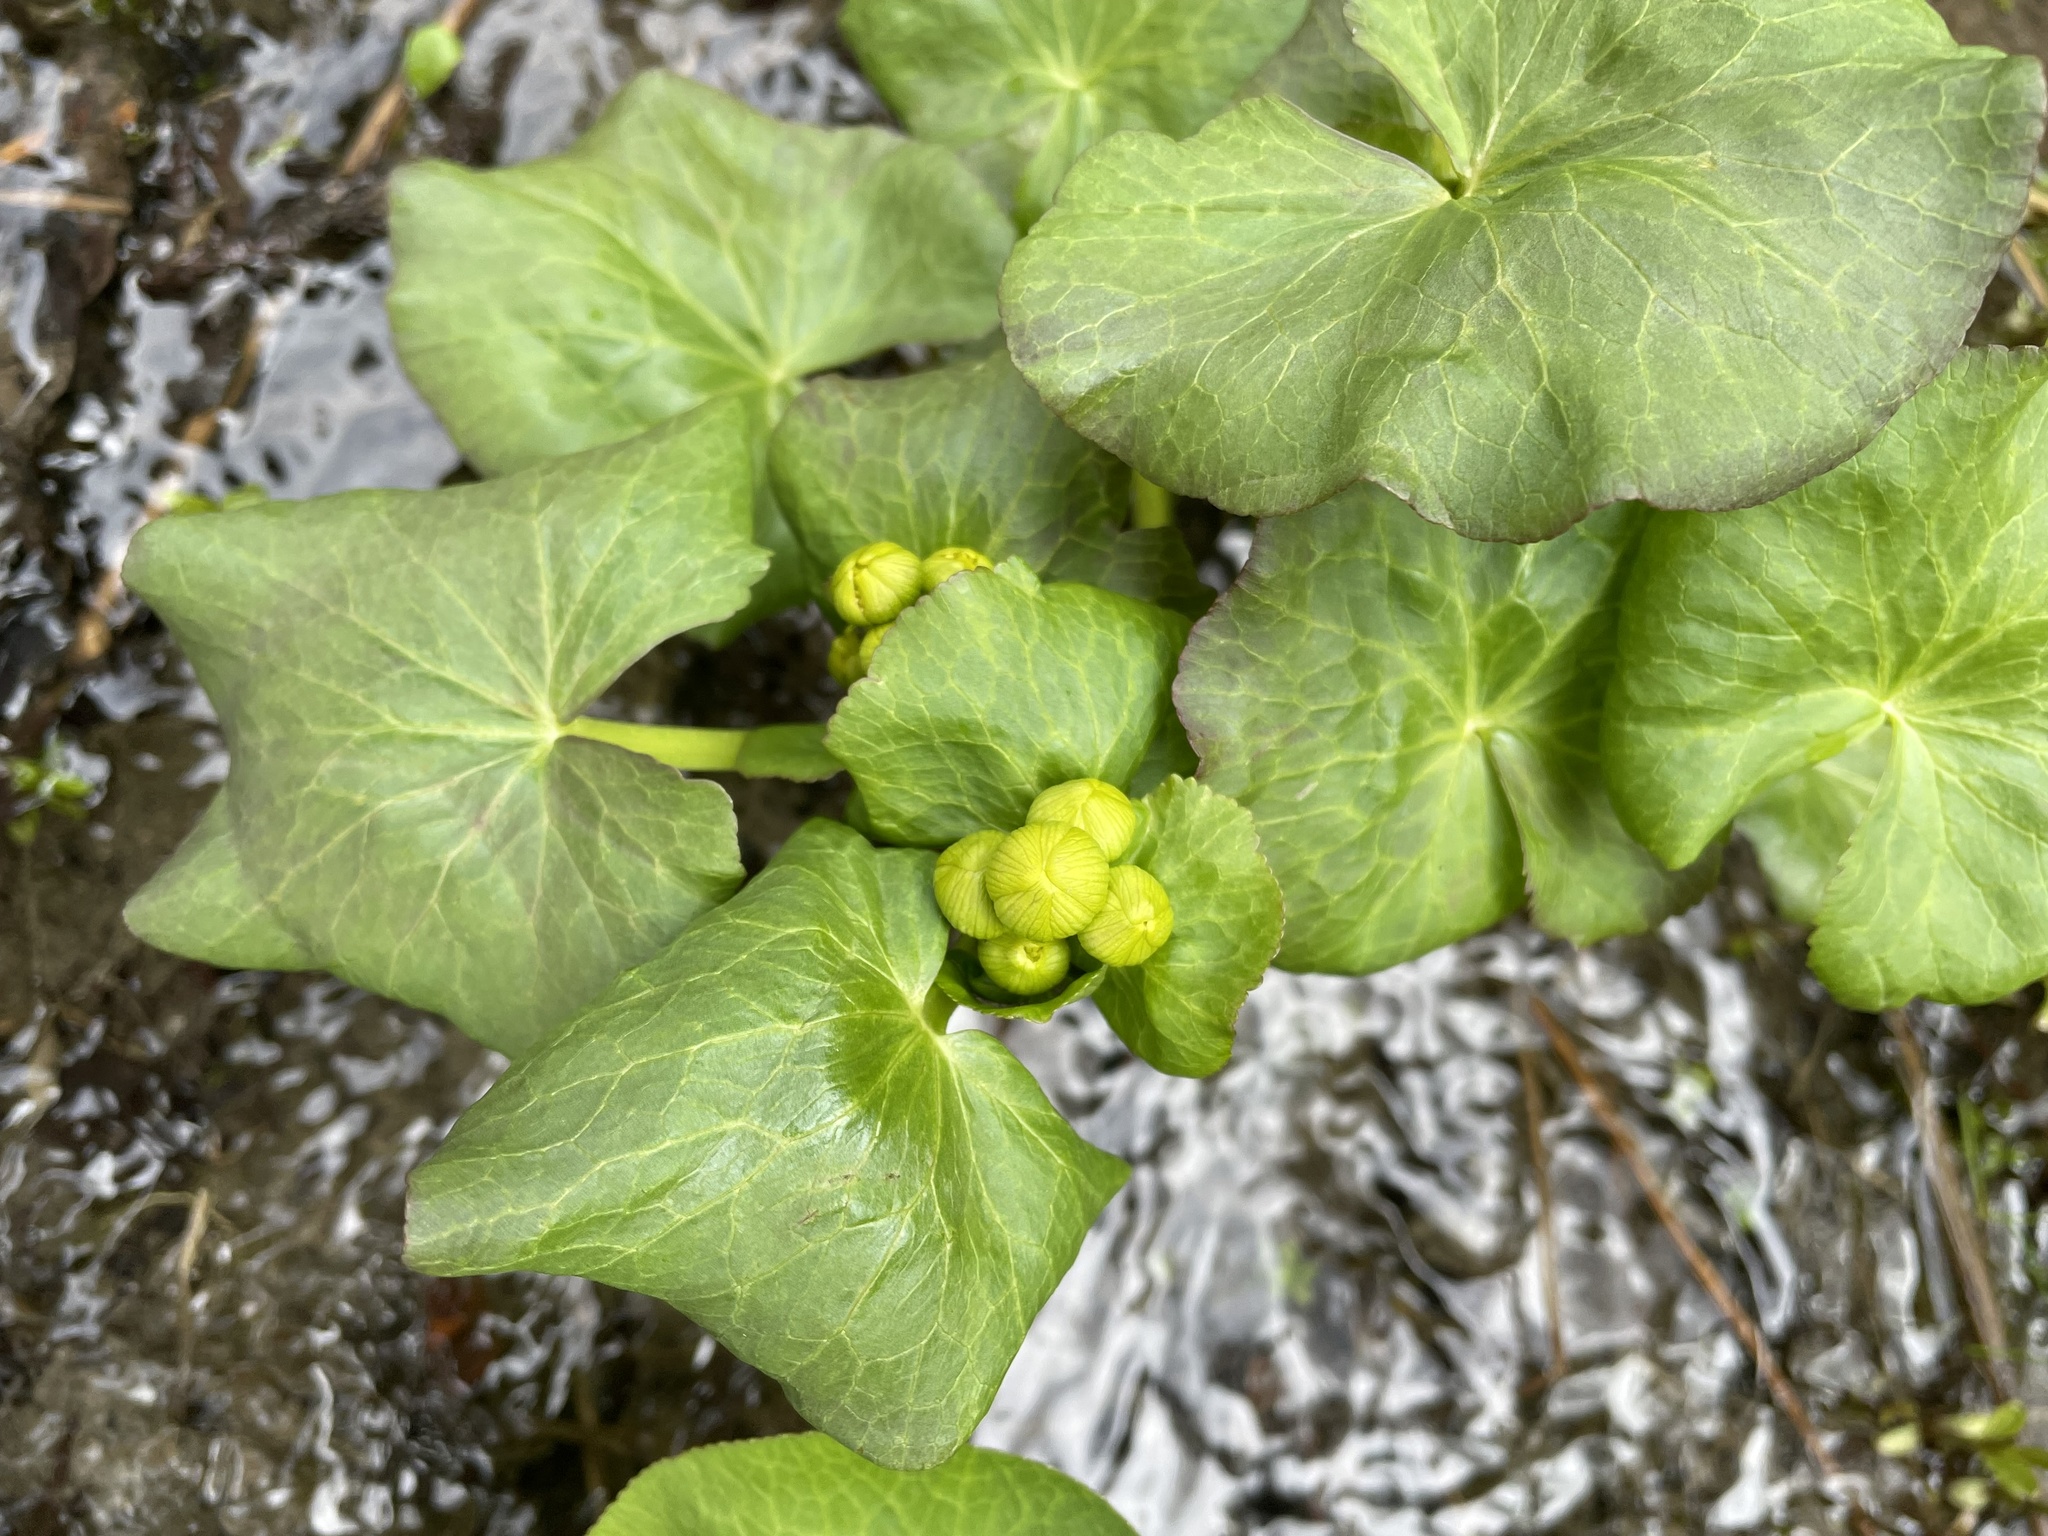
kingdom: Plantae
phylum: Tracheophyta
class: Magnoliopsida
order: Ranunculales
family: Ranunculaceae
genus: Caltha
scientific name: Caltha palustris
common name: Marsh marigold
